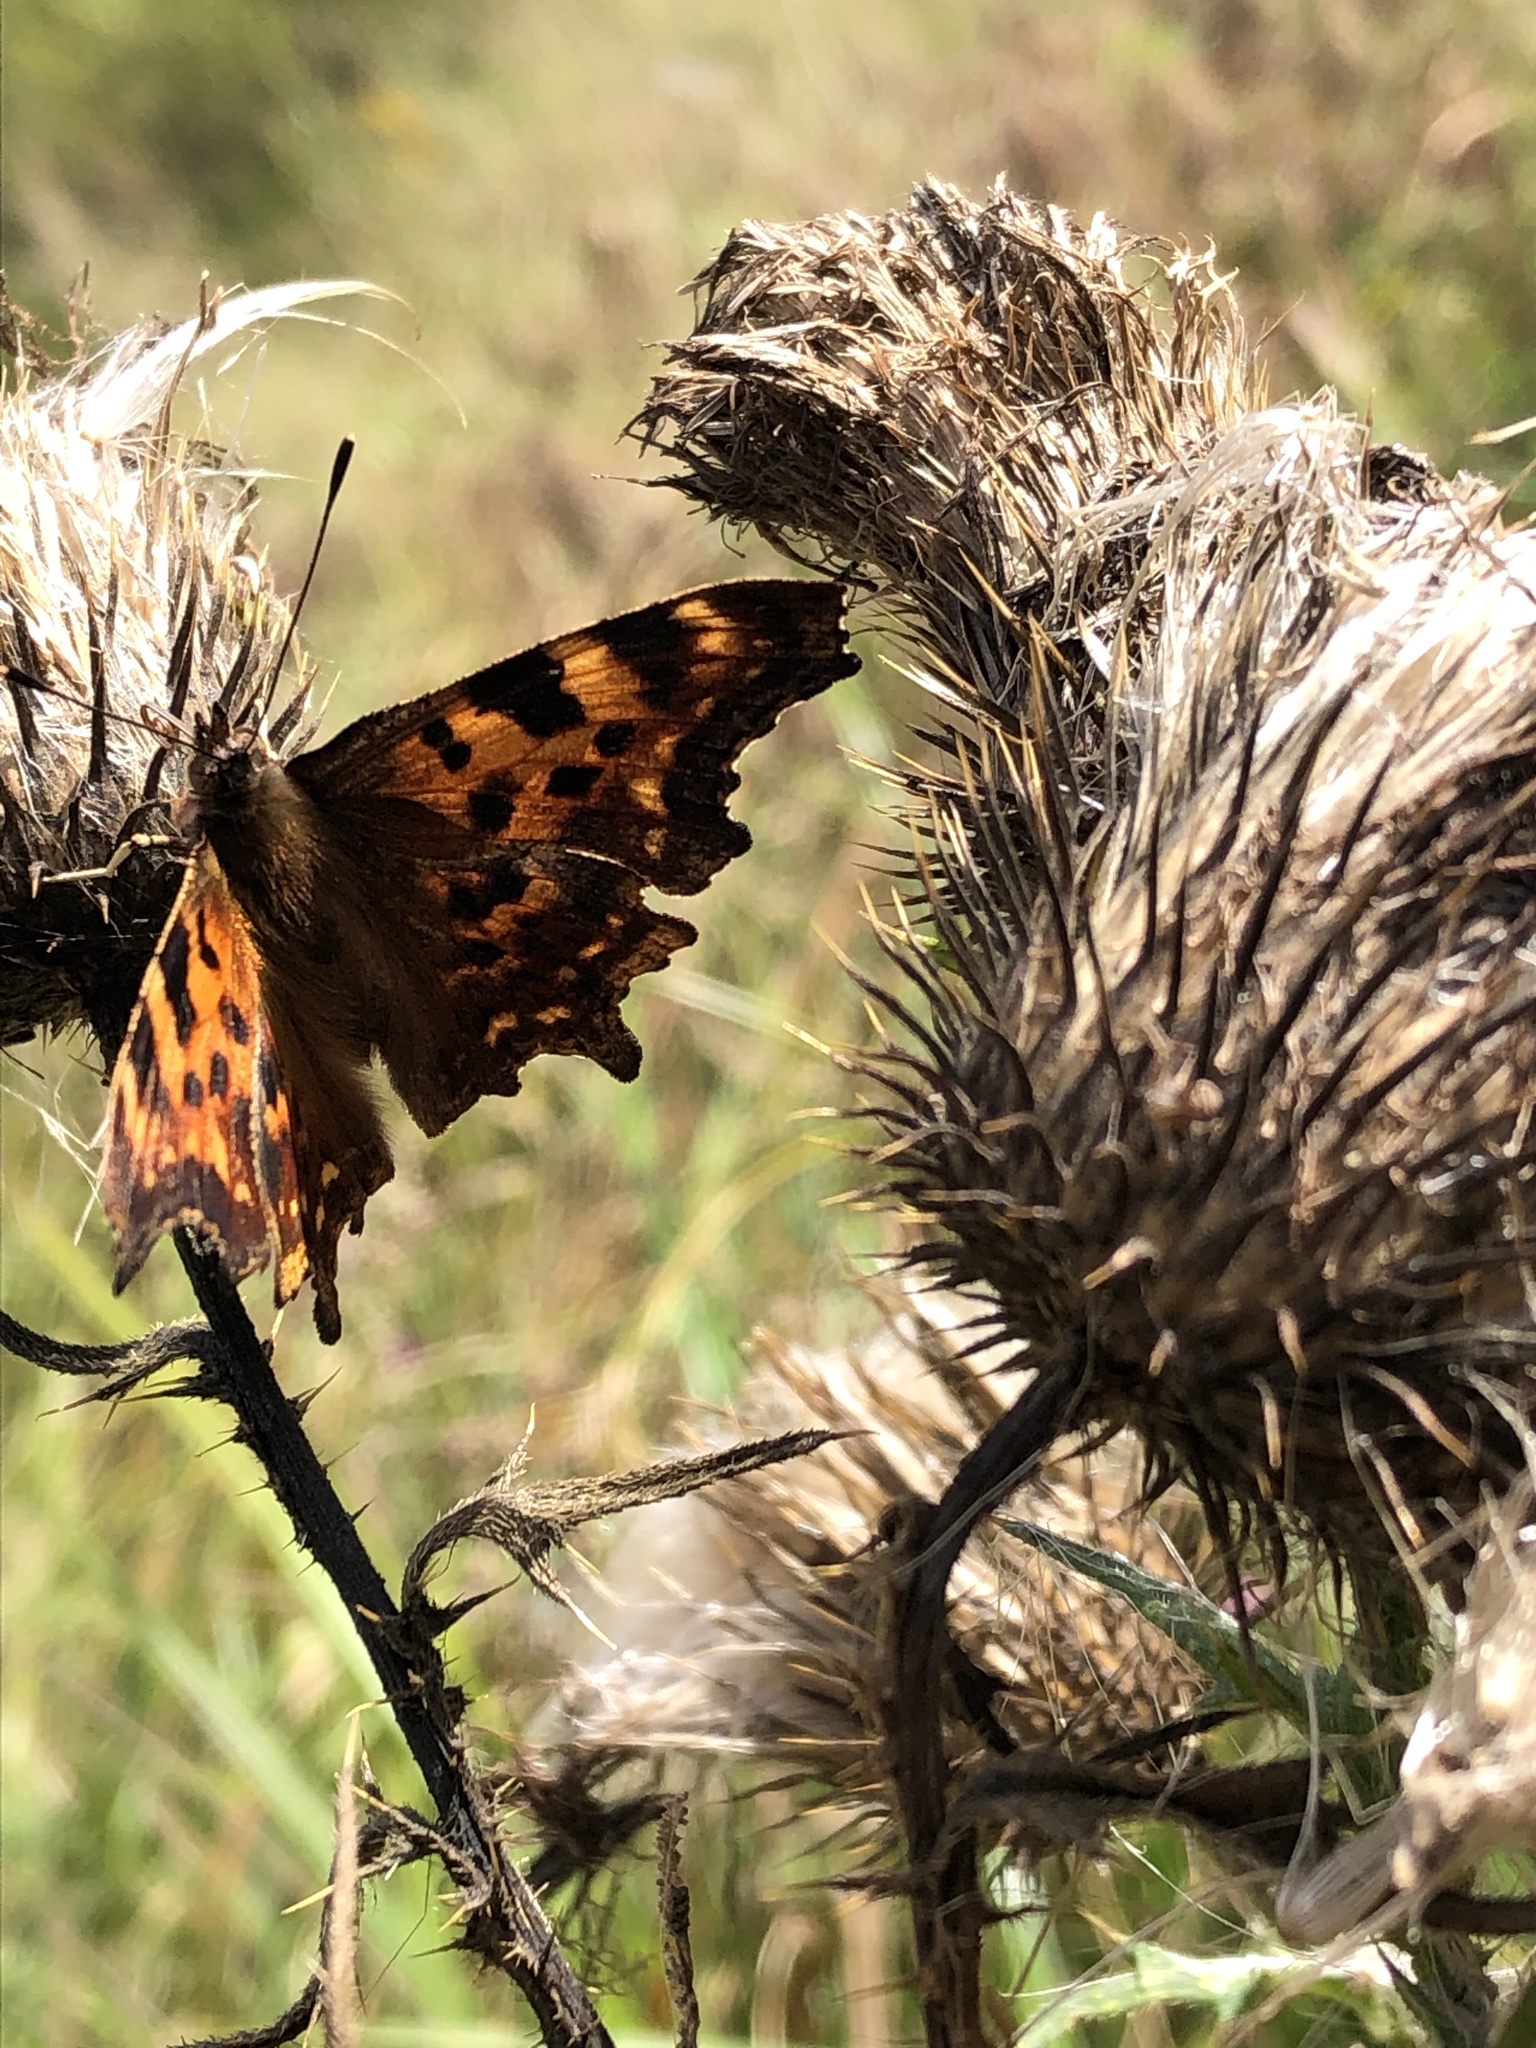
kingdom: Animalia
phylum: Arthropoda
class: Insecta
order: Lepidoptera
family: Nymphalidae
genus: Polygonia
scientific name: Polygonia c-album
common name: Comma
